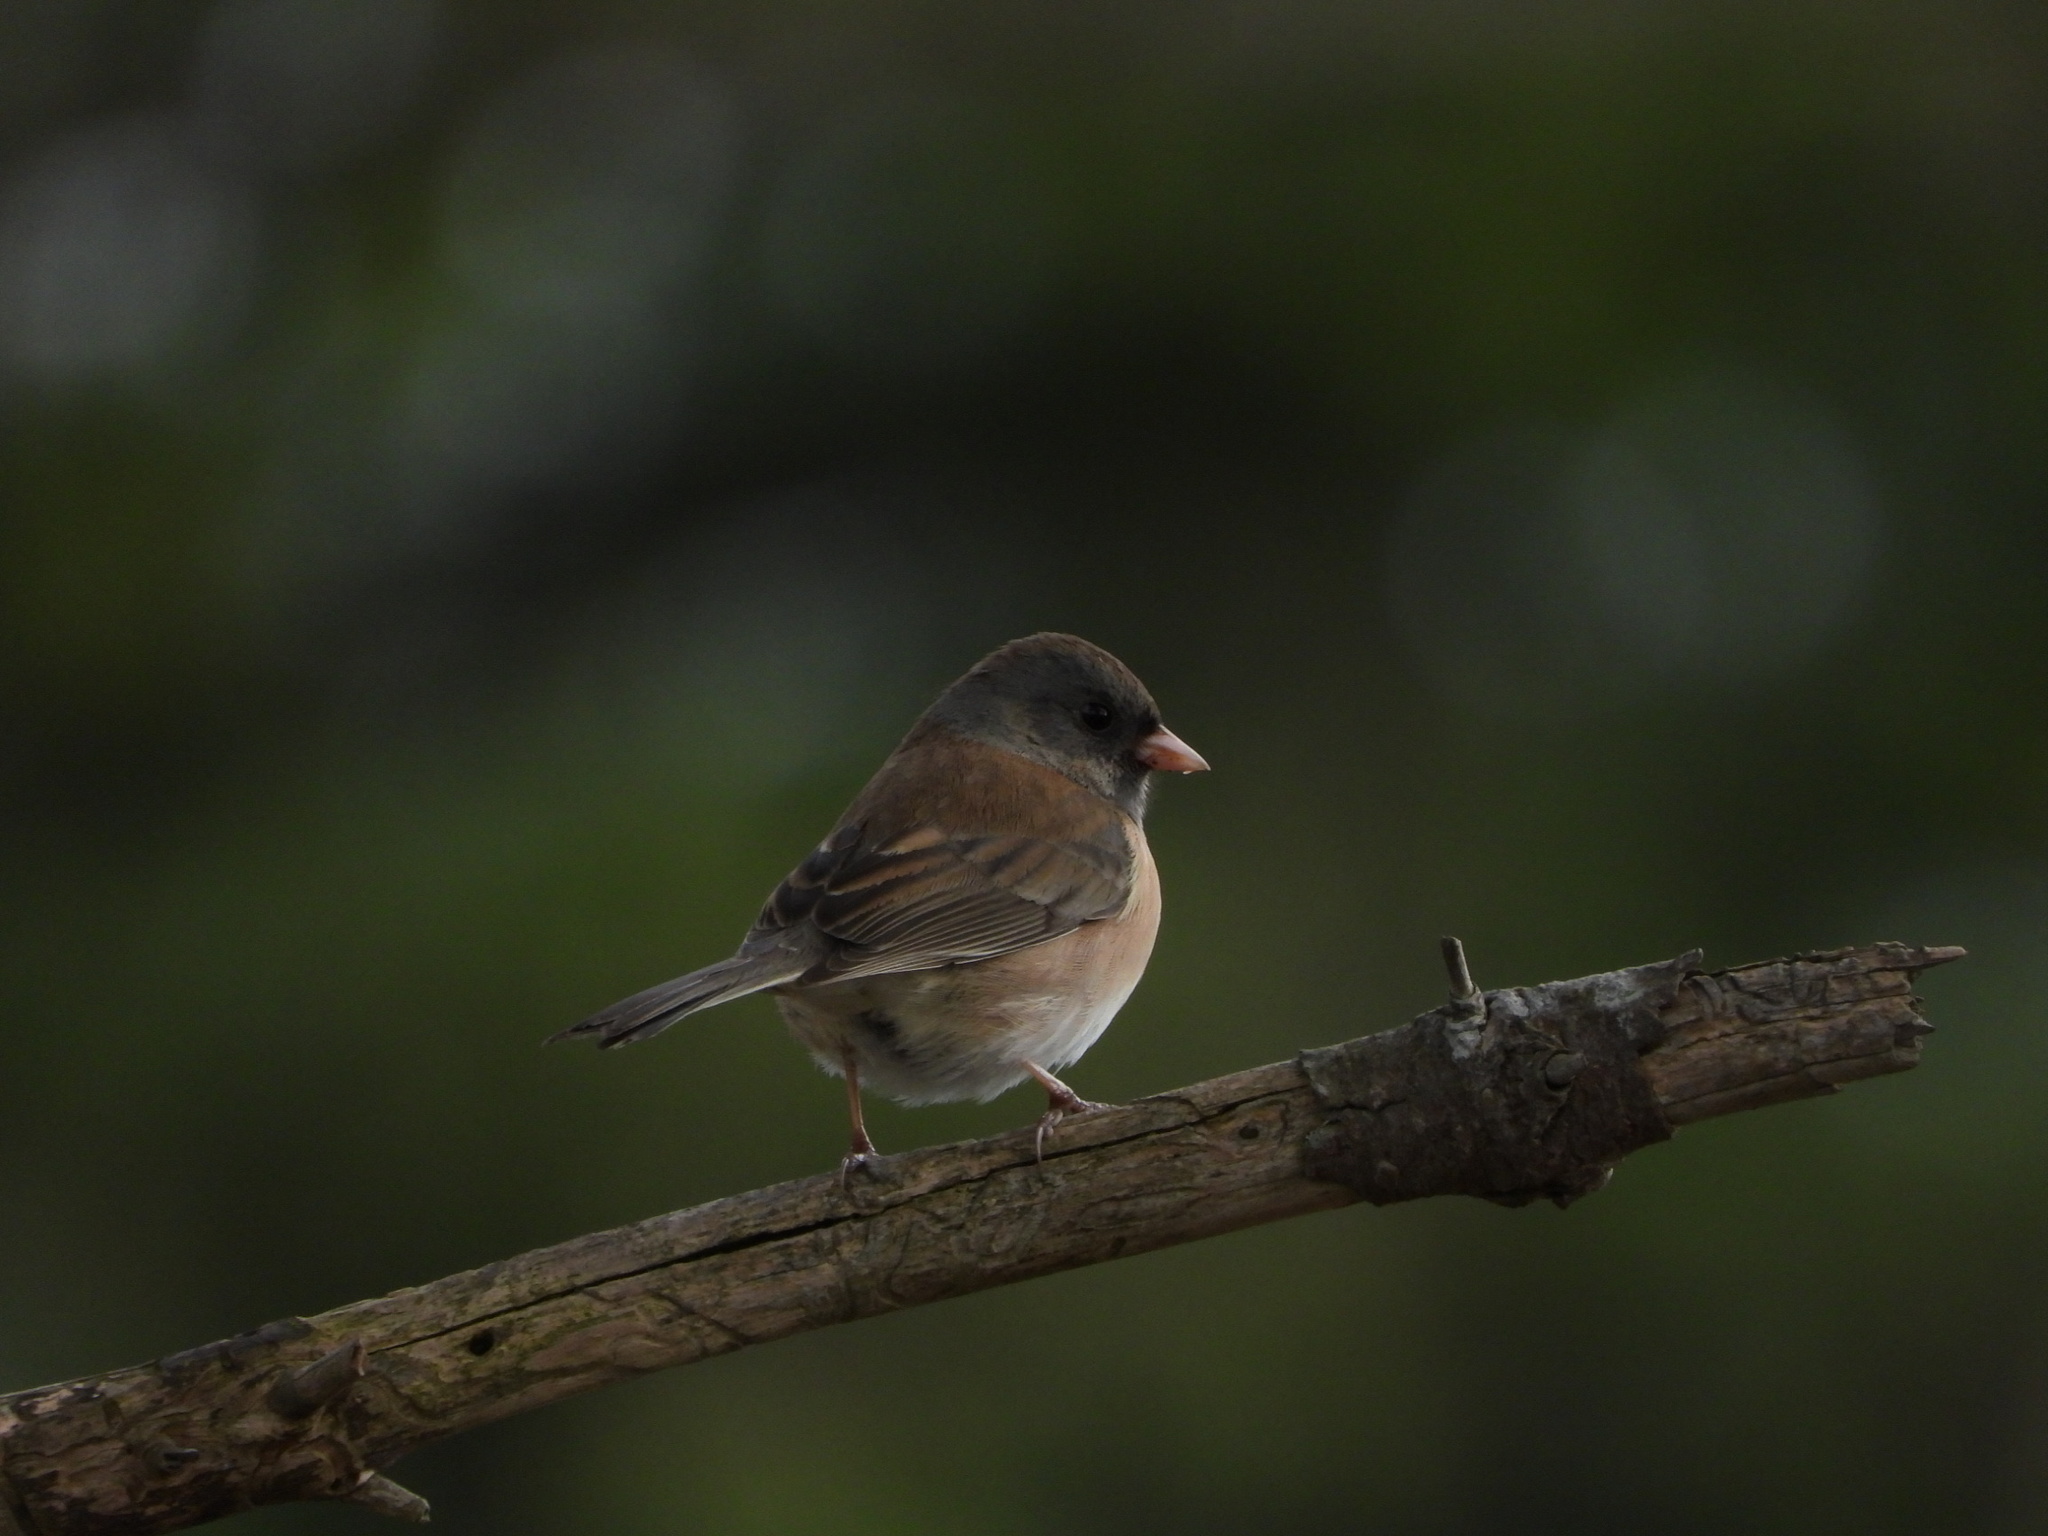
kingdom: Animalia
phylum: Chordata
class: Aves
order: Passeriformes
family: Passerellidae
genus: Junco
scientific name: Junco hyemalis
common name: Dark-eyed junco
